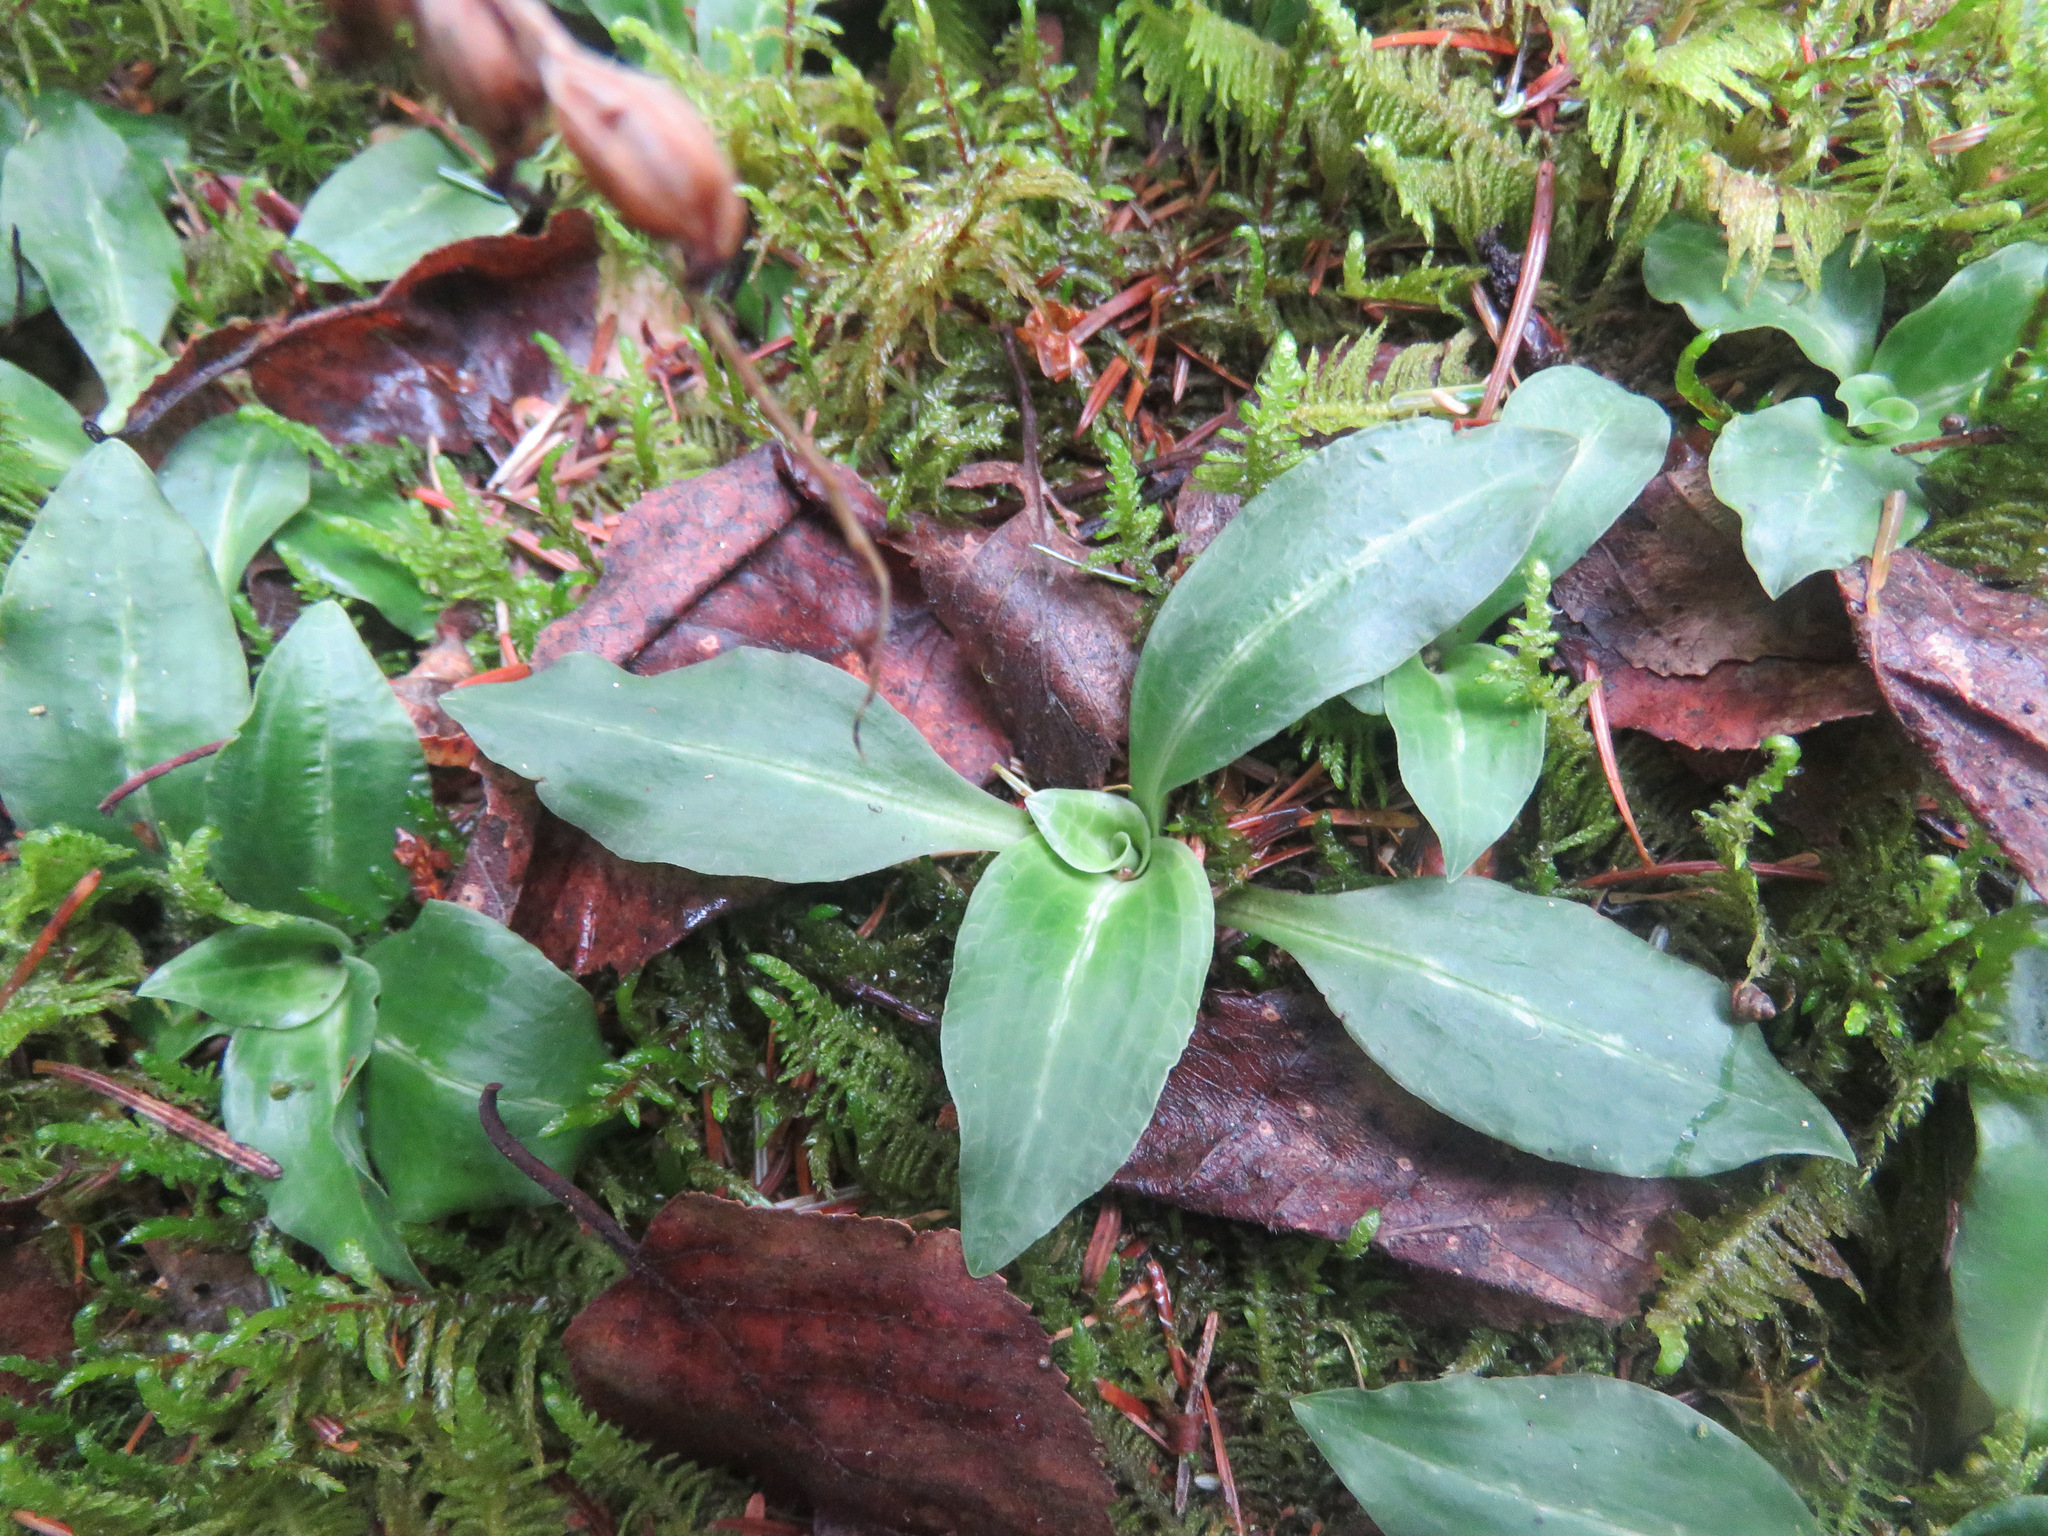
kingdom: Plantae
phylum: Tracheophyta
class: Liliopsida
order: Asparagales
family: Orchidaceae
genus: Goodyera
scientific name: Goodyera oblongifolia
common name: Giant rattlesnake-plantain
